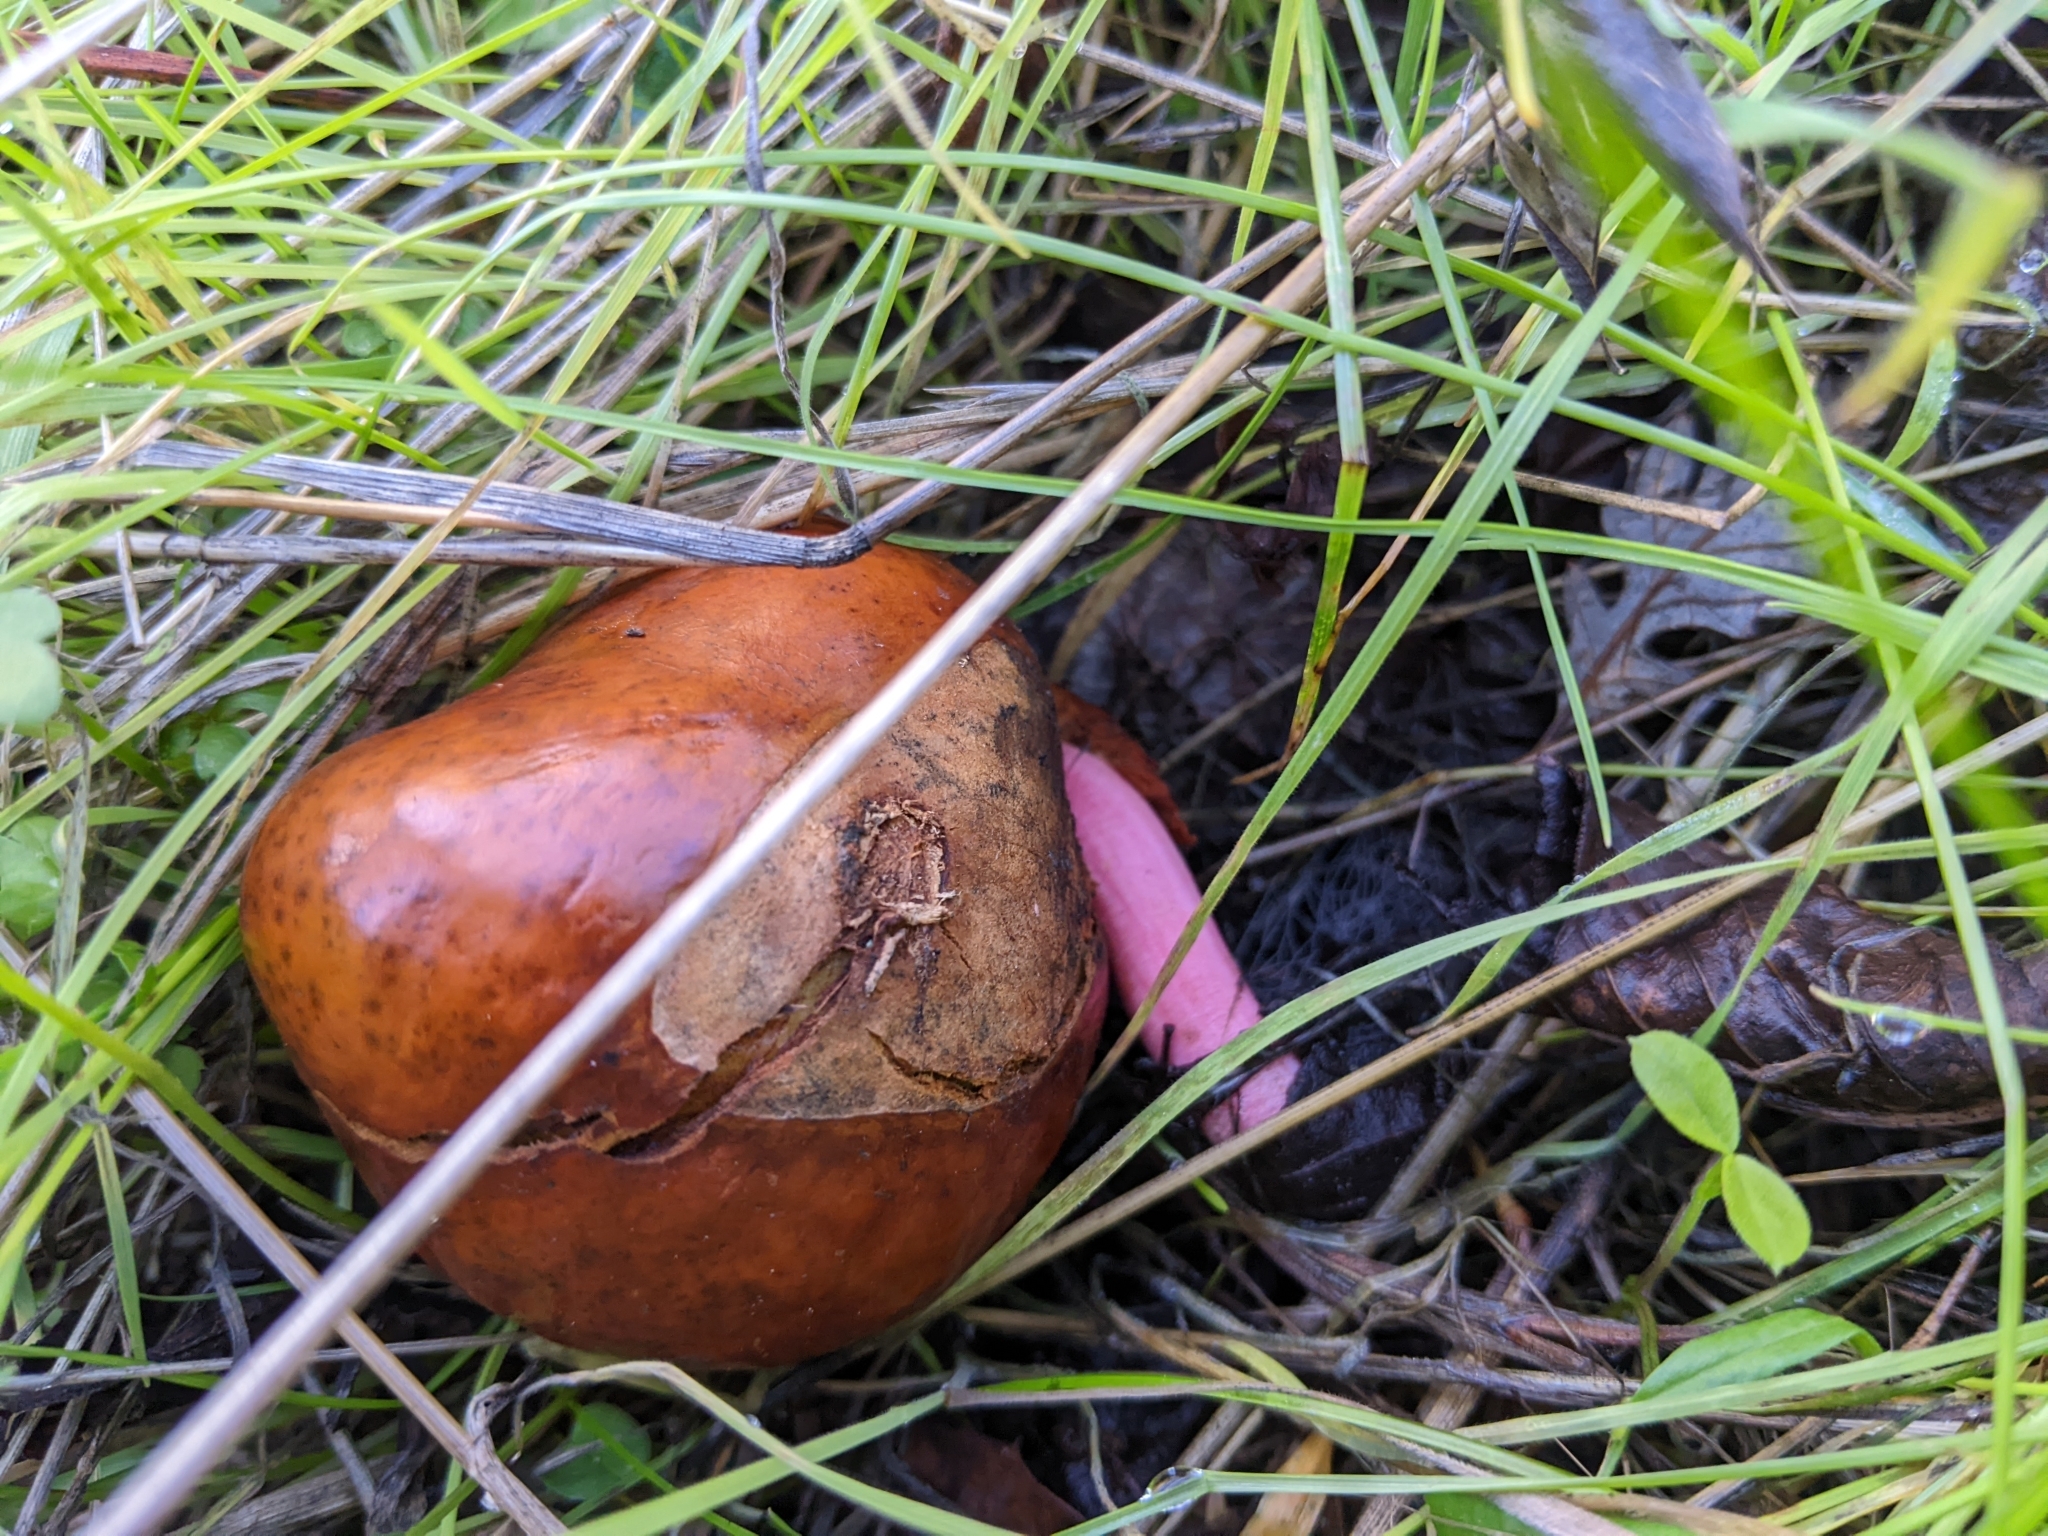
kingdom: Plantae
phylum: Tracheophyta
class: Magnoliopsida
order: Sapindales
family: Sapindaceae
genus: Aesculus
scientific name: Aesculus californica
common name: California buckeye
